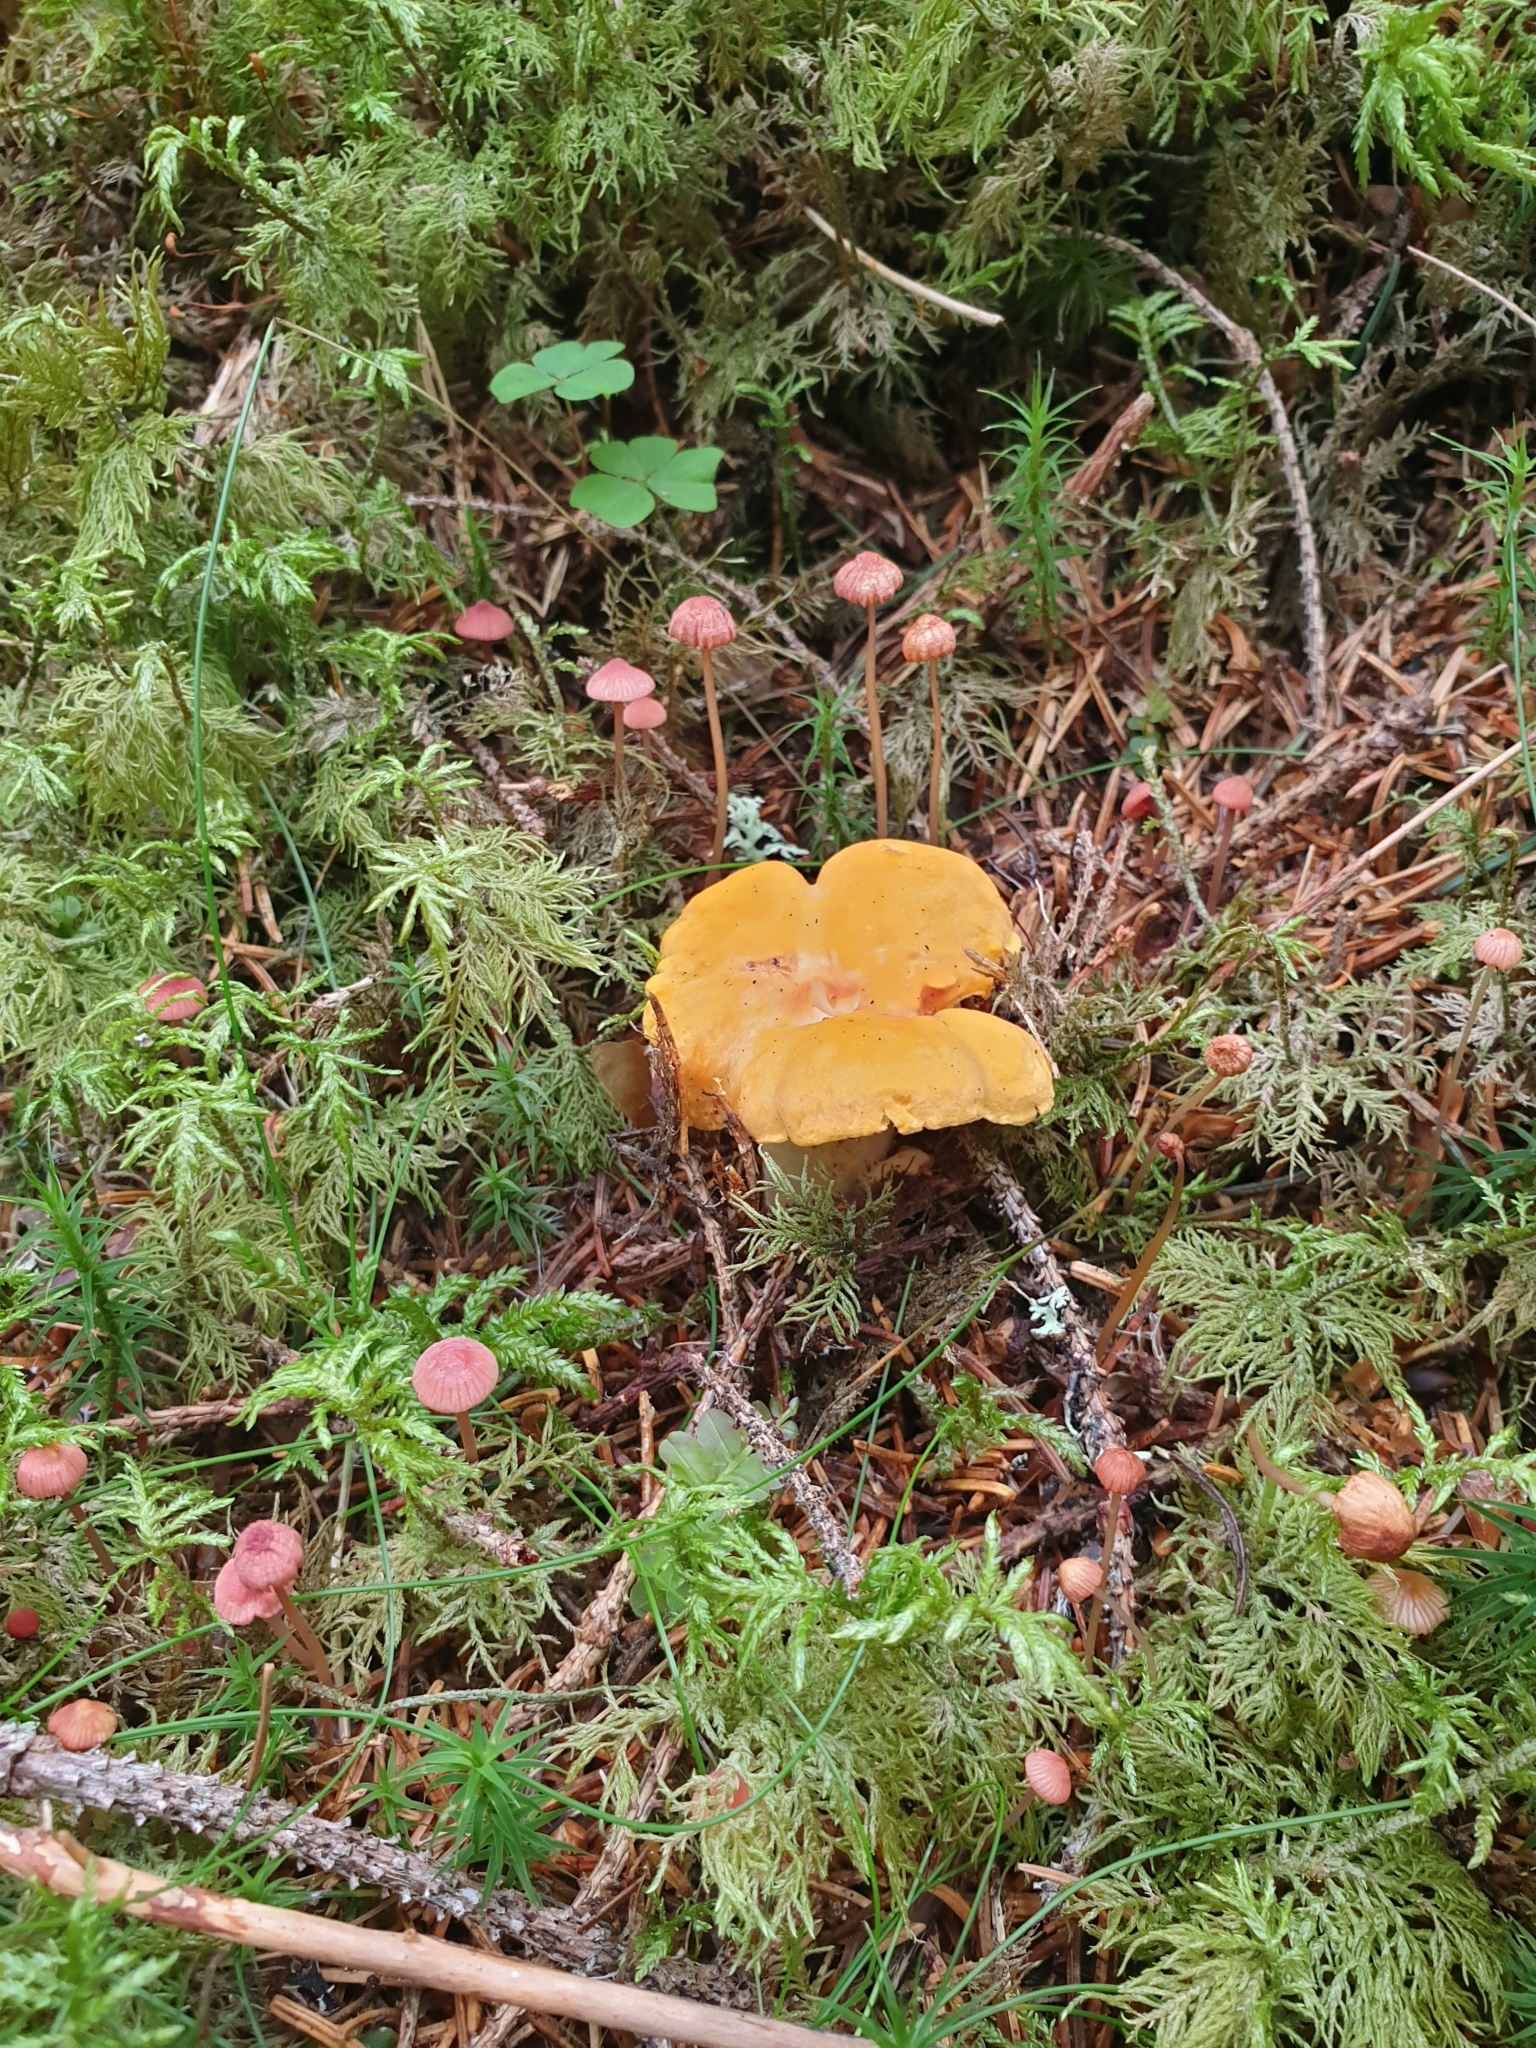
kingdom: Fungi
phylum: Basidiomycota
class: Agaricomycetes
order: Cantharellales
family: Hydnaceae
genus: Cantharellus
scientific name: Cantharellus cibarius
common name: Chanterelle
